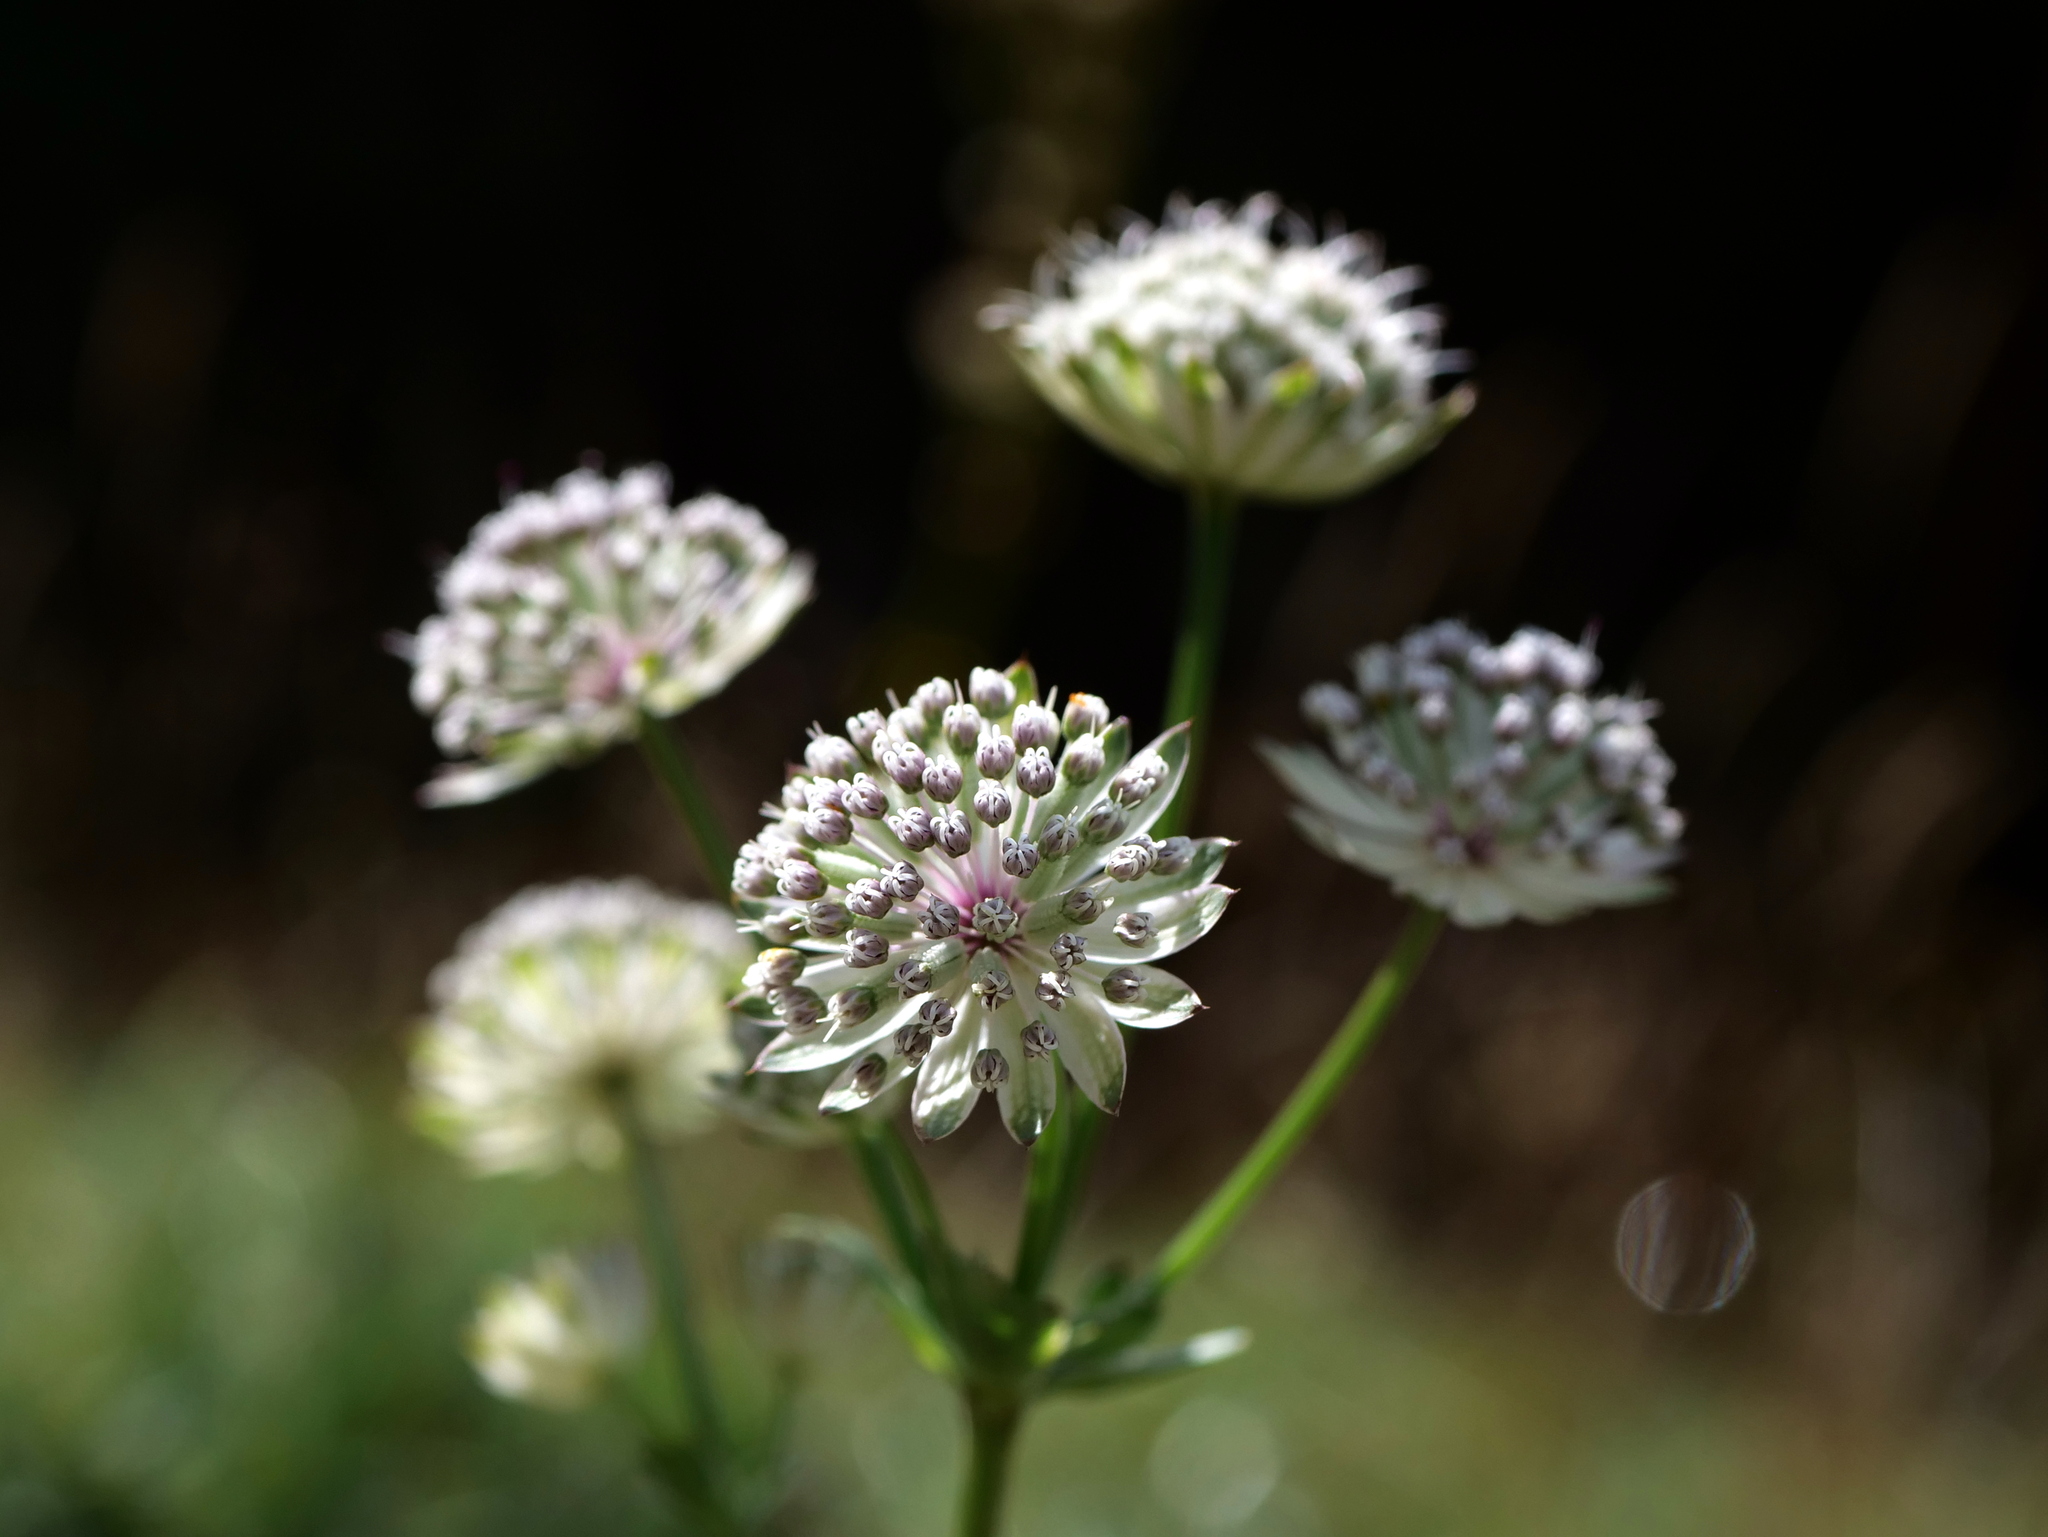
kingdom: Plantae
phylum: Tracheophyta
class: Magnoliopsida
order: Apiales
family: Apiaceae
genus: Astrantia
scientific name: Astrantia major
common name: Greater masterwort
